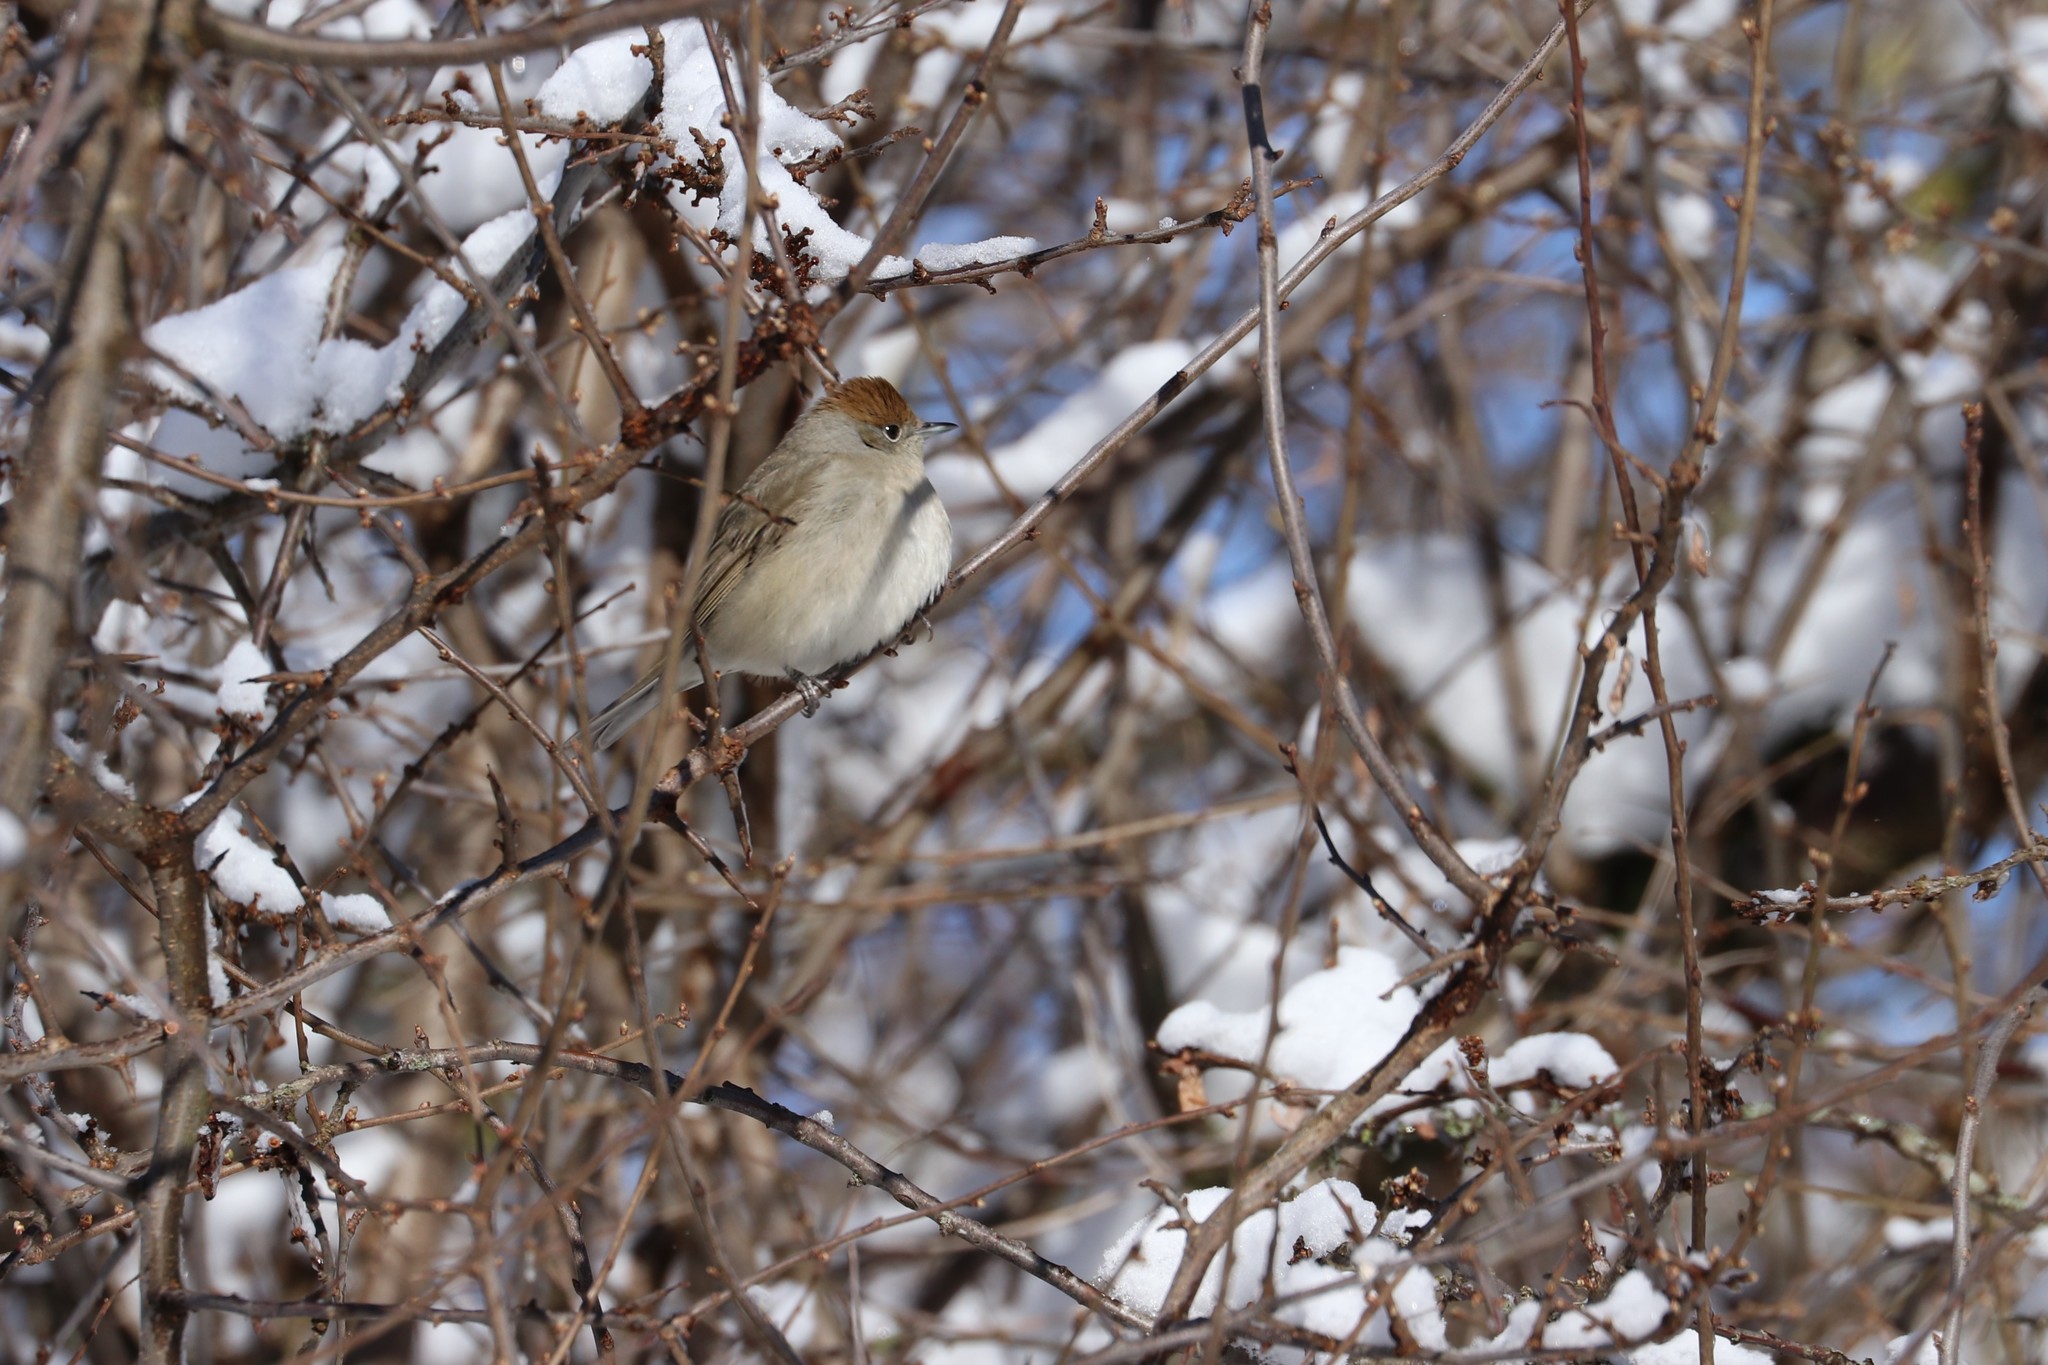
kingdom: Animalia
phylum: Chordata
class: Aves
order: Passeriformes
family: Sylviidae
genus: Sylvia
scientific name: Sylvia atricapilla
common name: Eurasian blackcap
